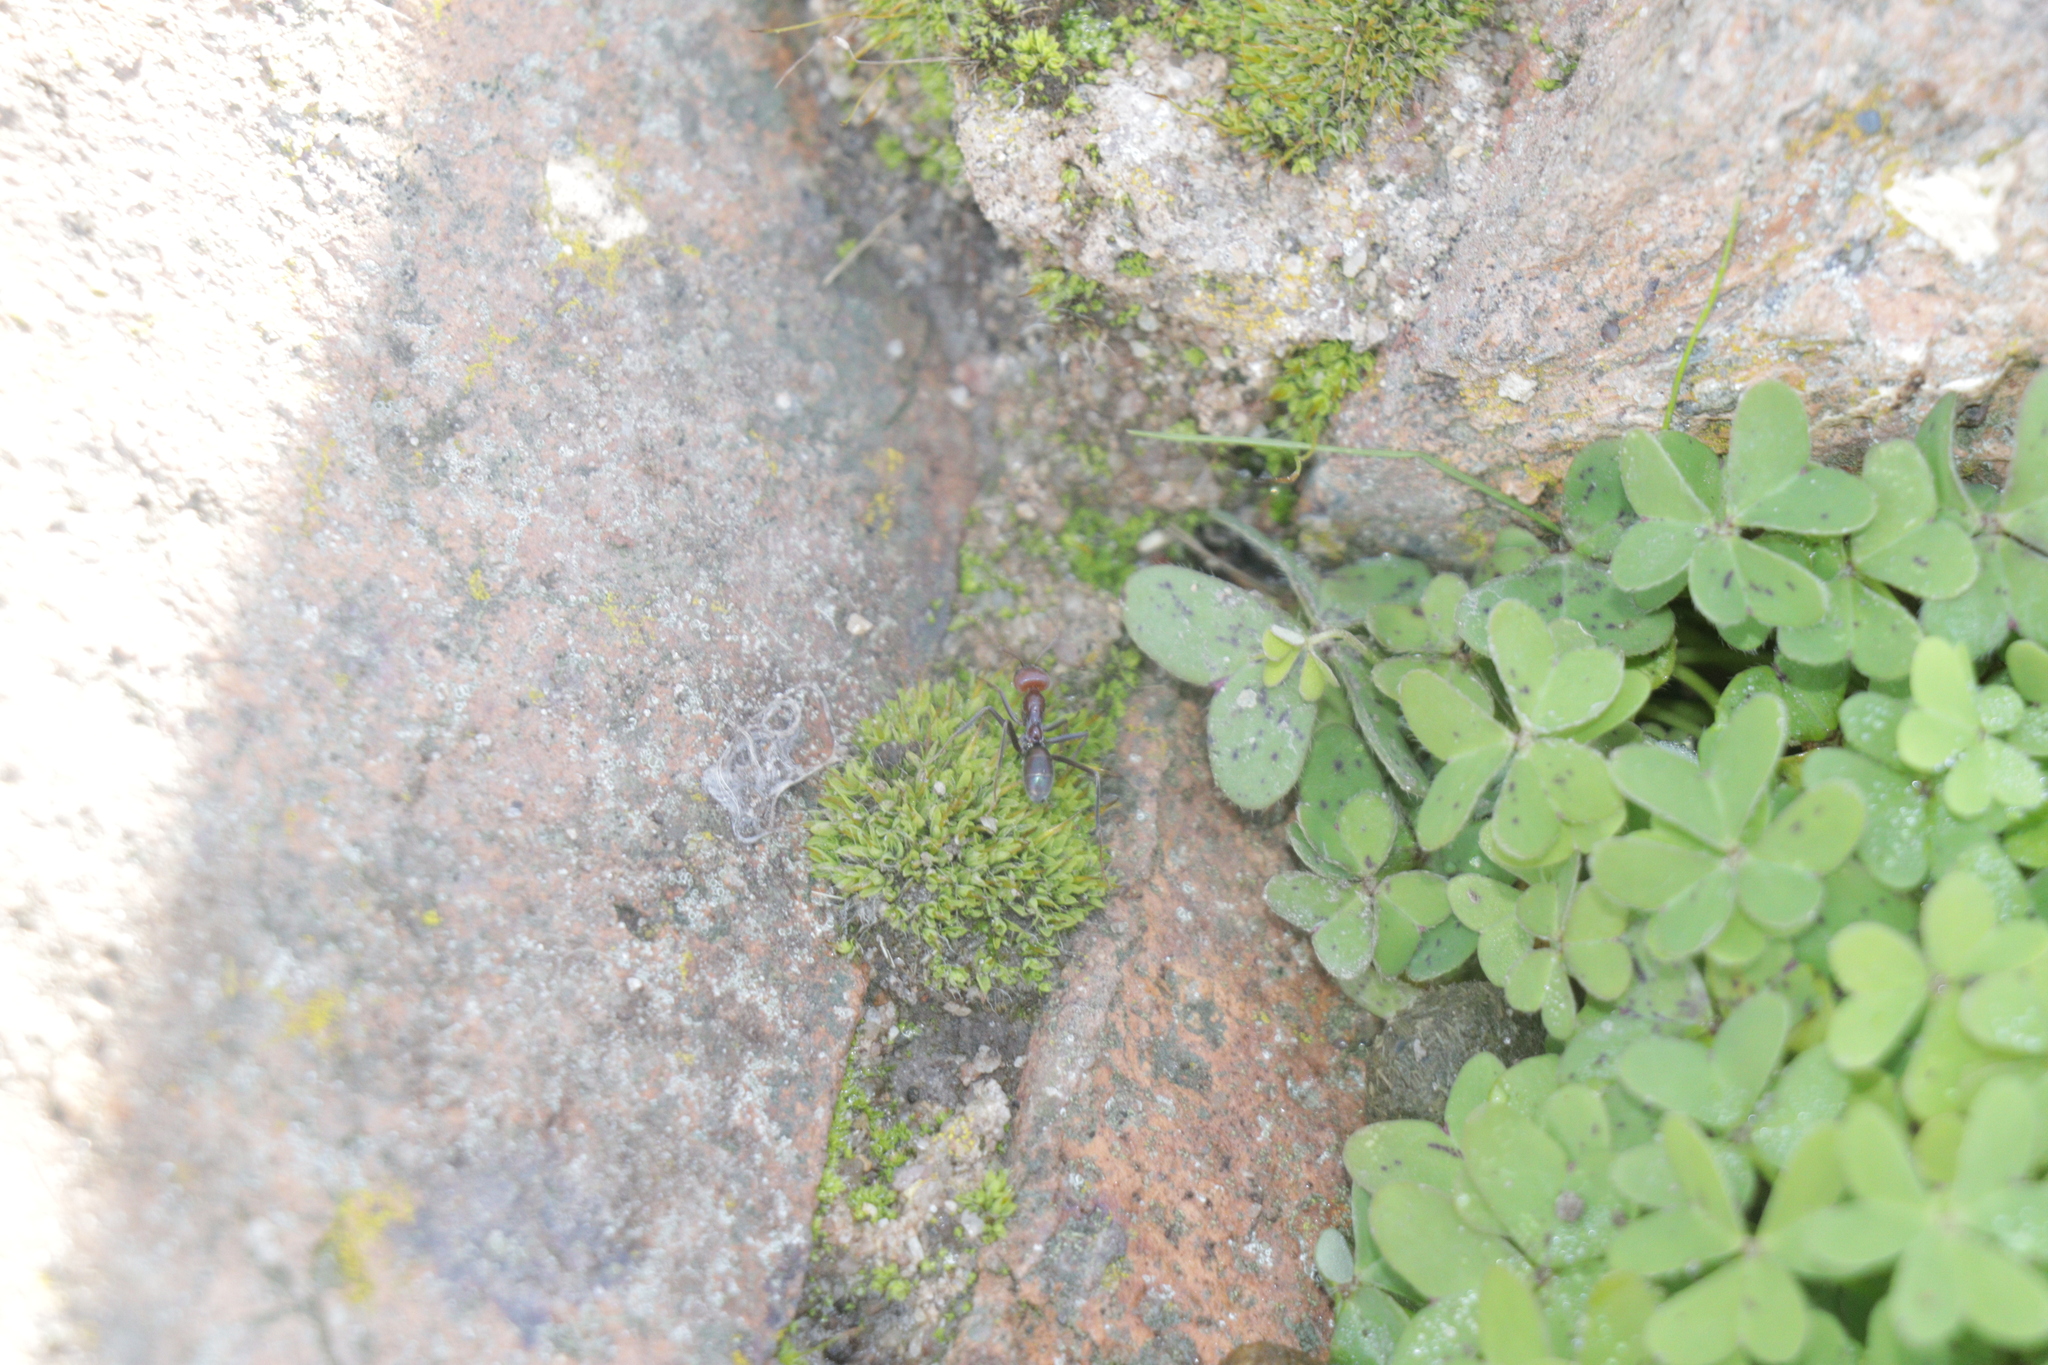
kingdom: Animalia
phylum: Arthropoda
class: Insecta
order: Hymenoptera
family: Formicidae
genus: Iridomyrmex
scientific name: Iridomyrmex purpureus
